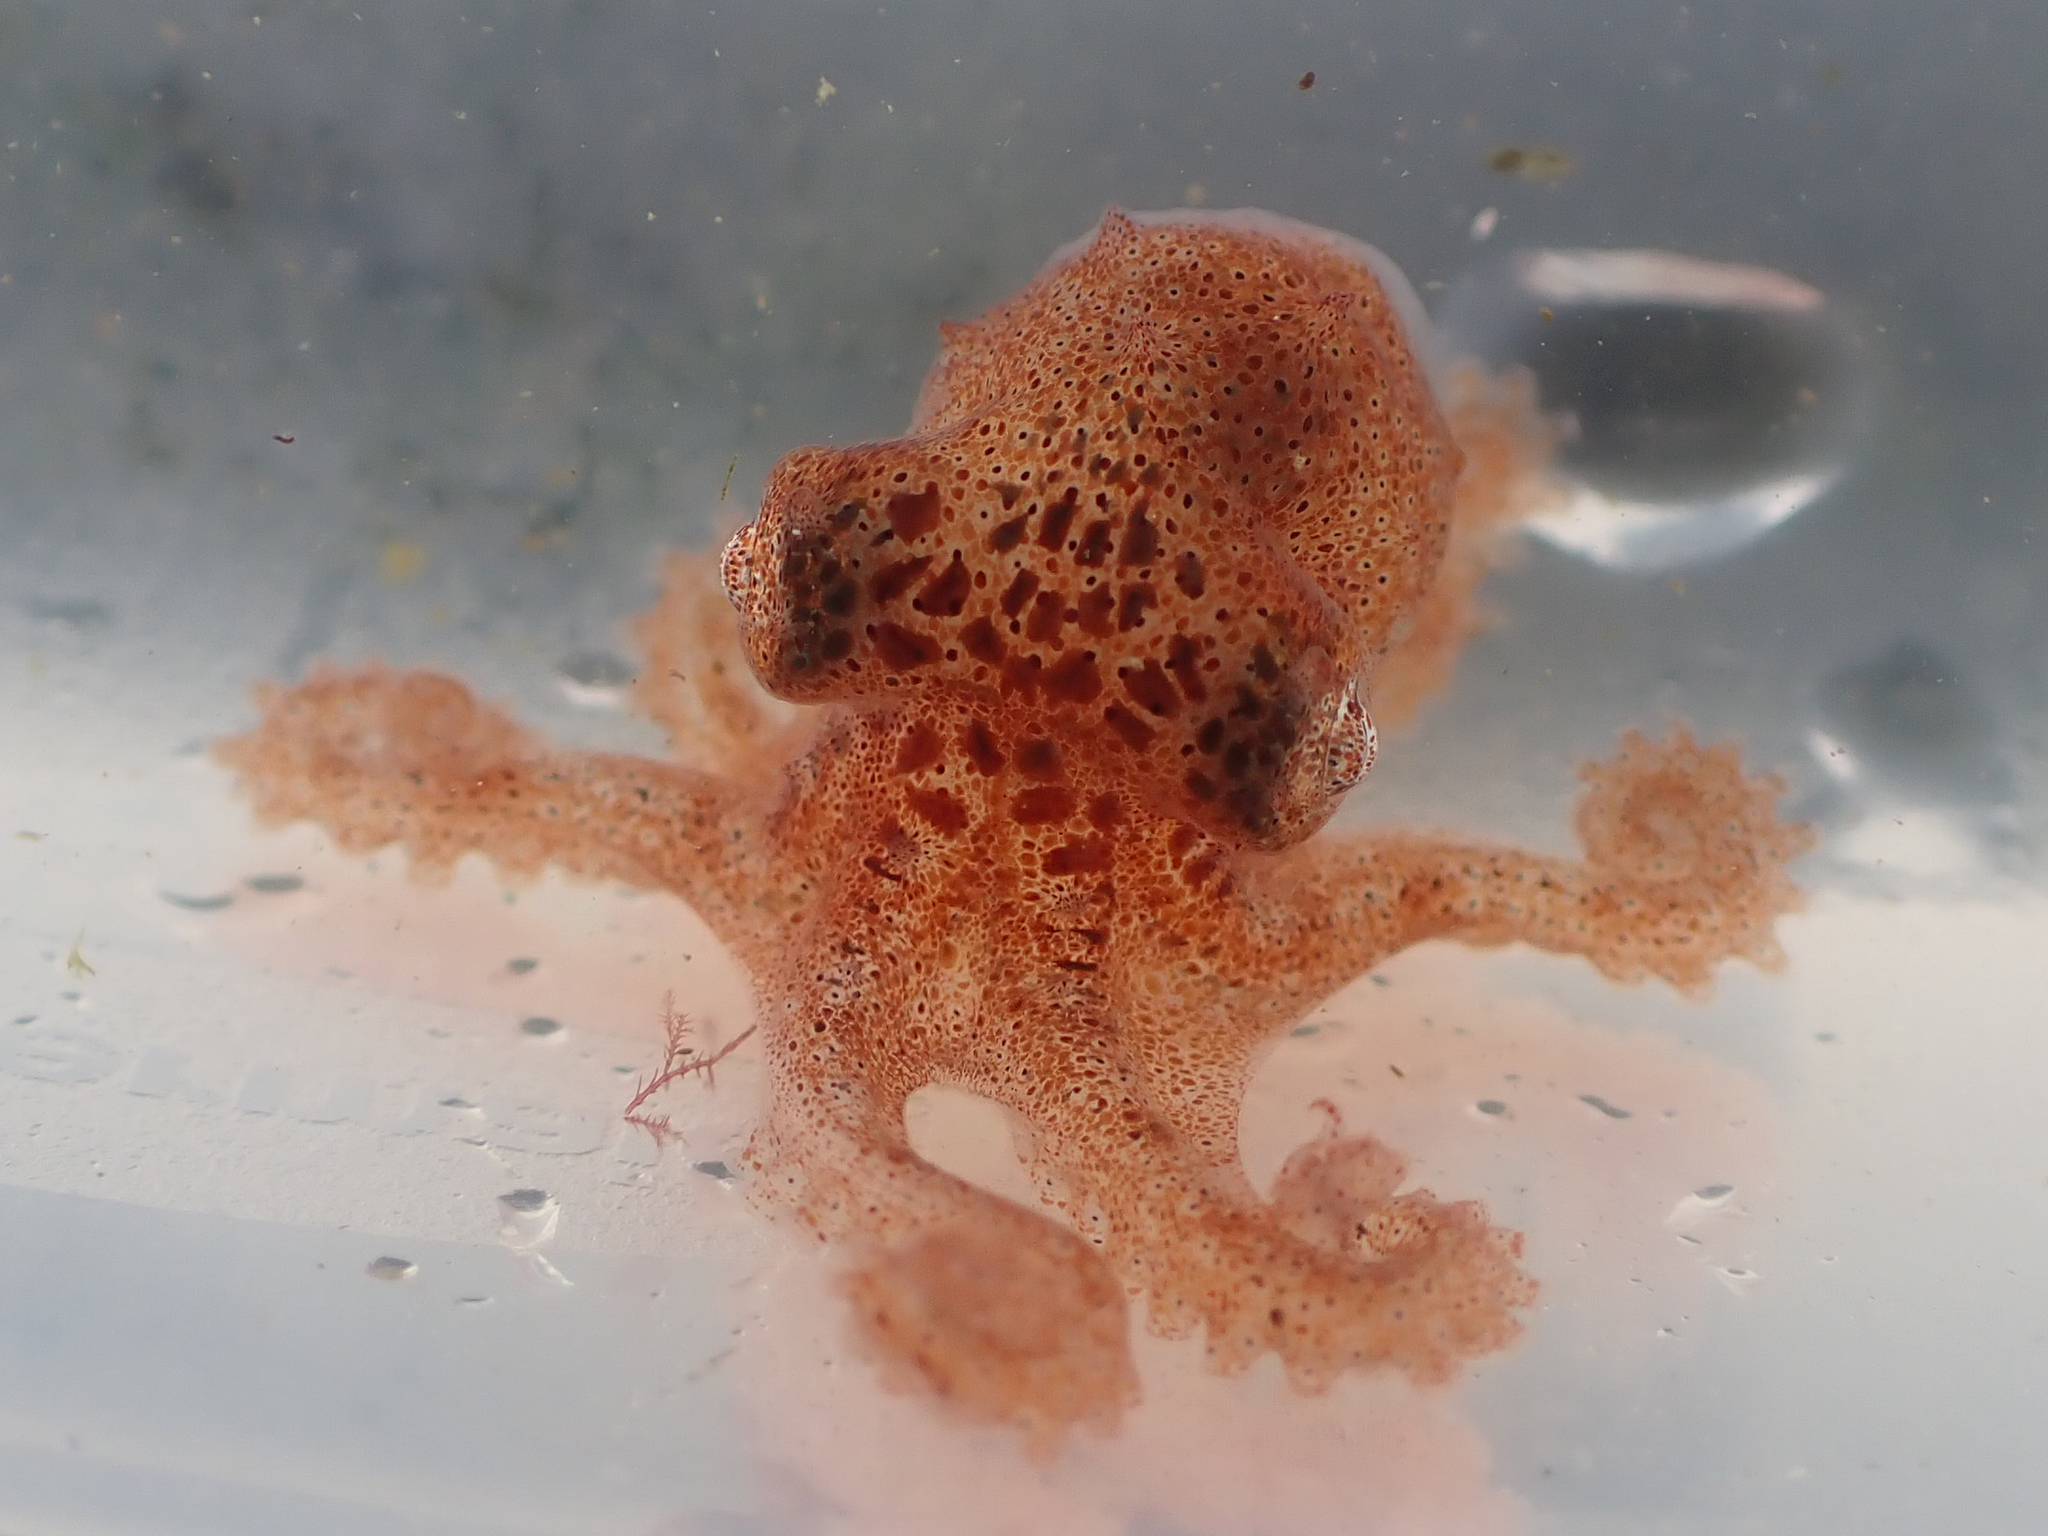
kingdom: Animalia
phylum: Mollusca
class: Cephalopoda
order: Octopoda
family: Enteroctopodidae
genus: Enteroctopus
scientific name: Enteroctopus dofleini
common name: Giant north pacific octopus
